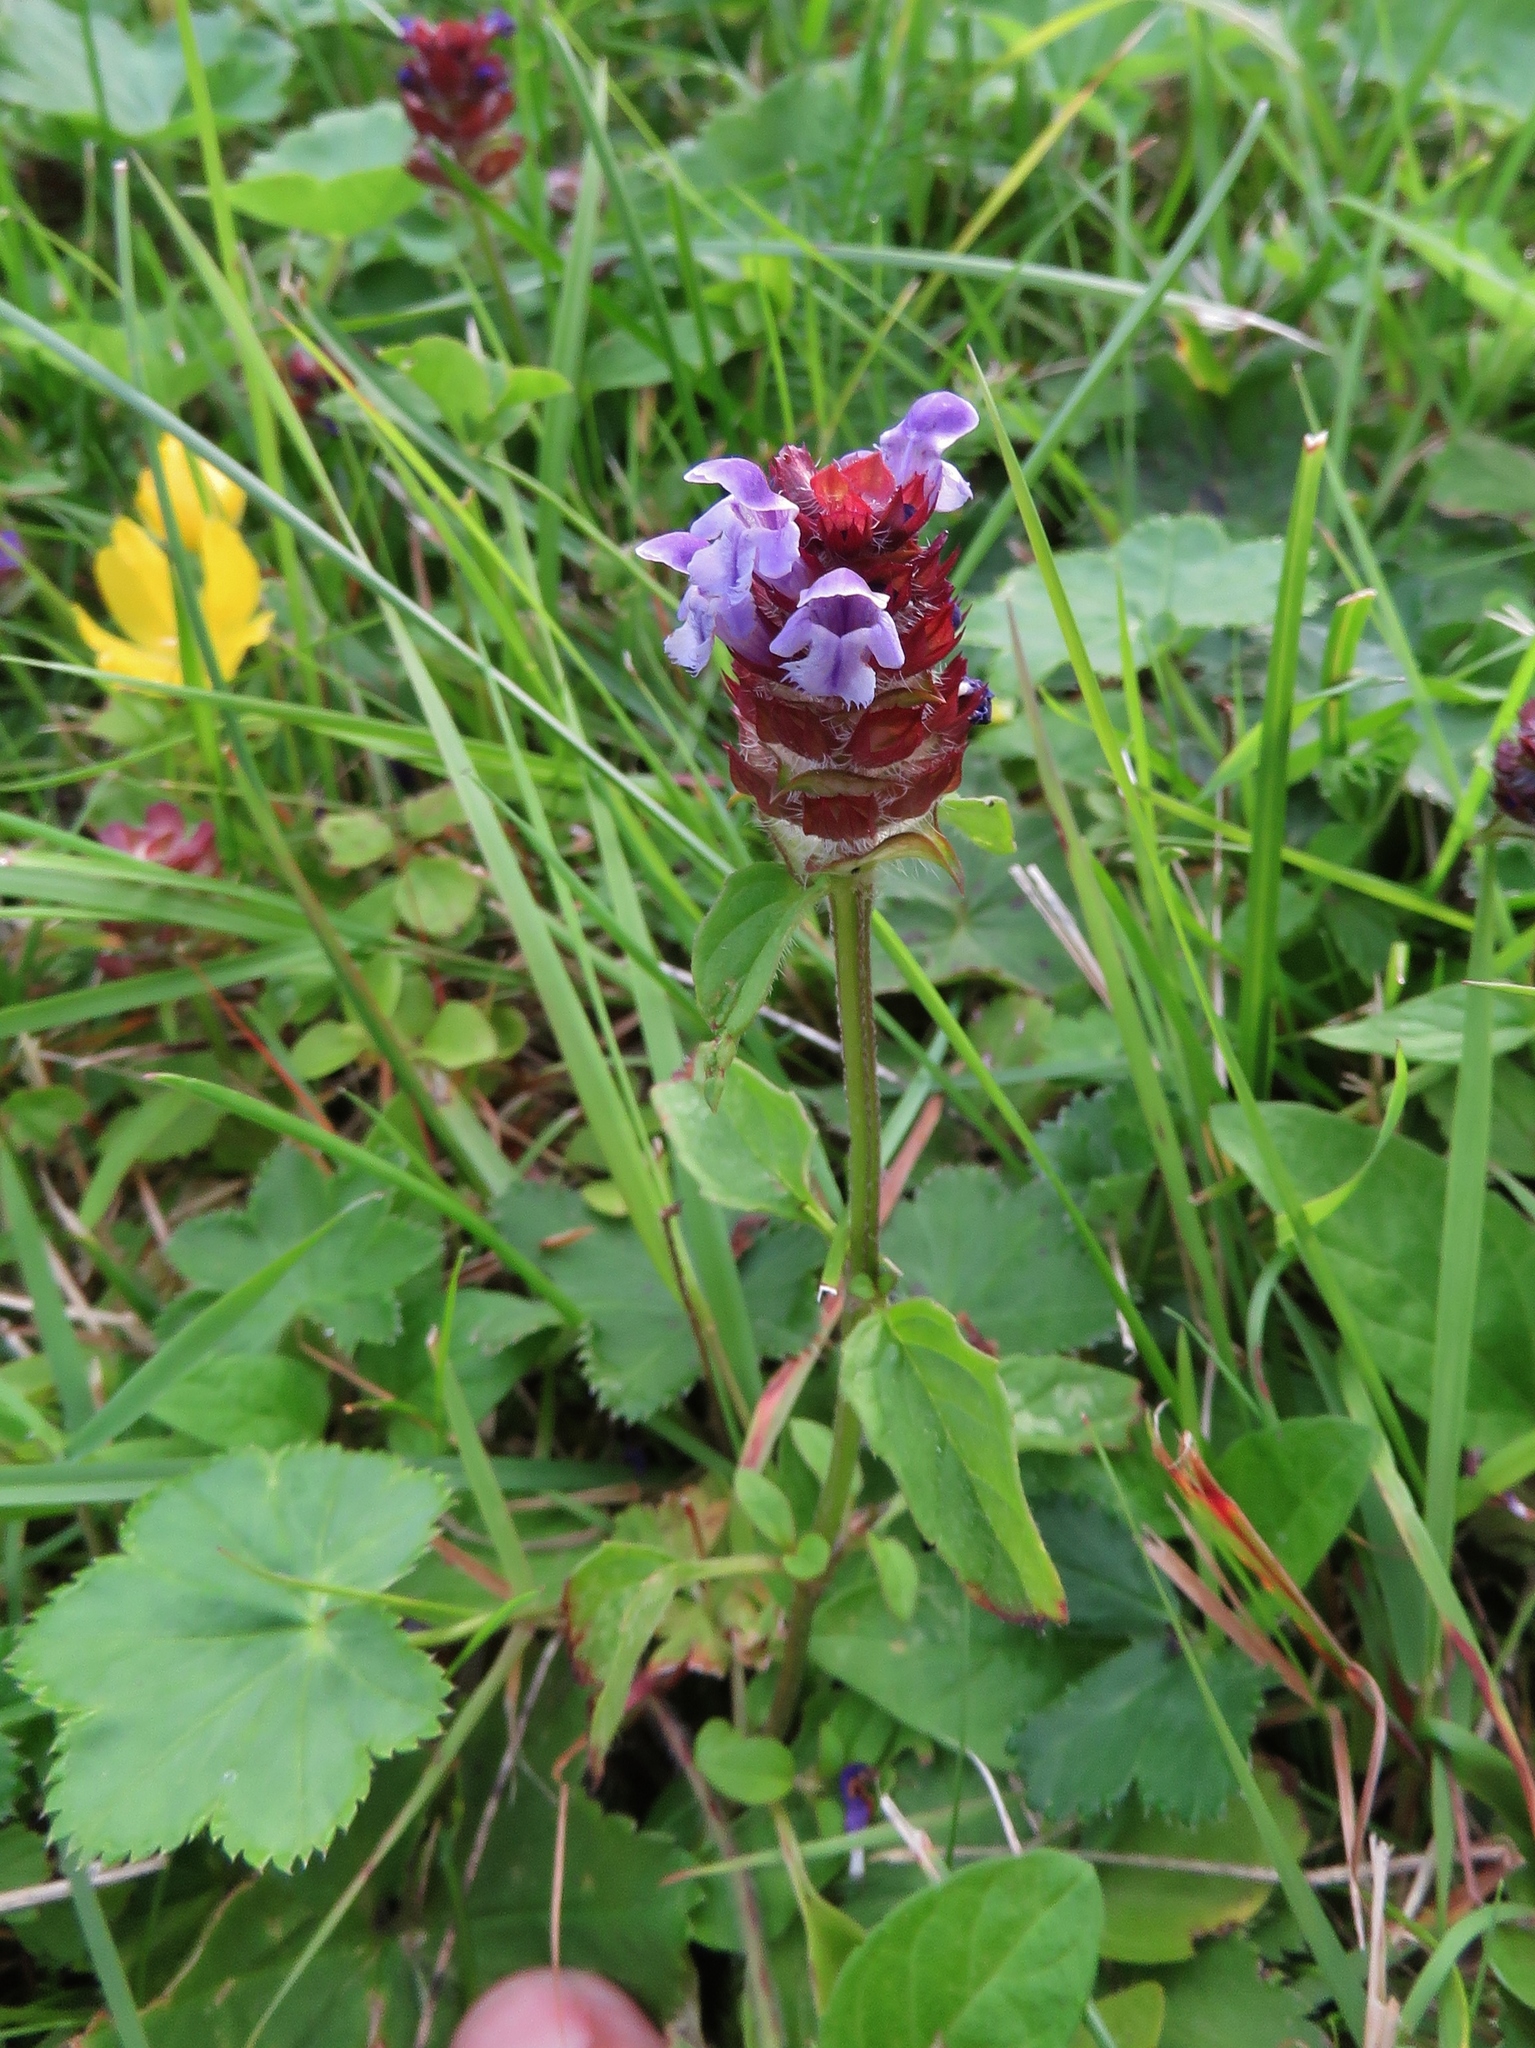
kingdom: Plantae
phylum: Tracheophyta
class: Magnoliopsida
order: Lamiales
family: Lamiaceae
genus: Prunella
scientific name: Prunella vulgaris
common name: Heal-all
